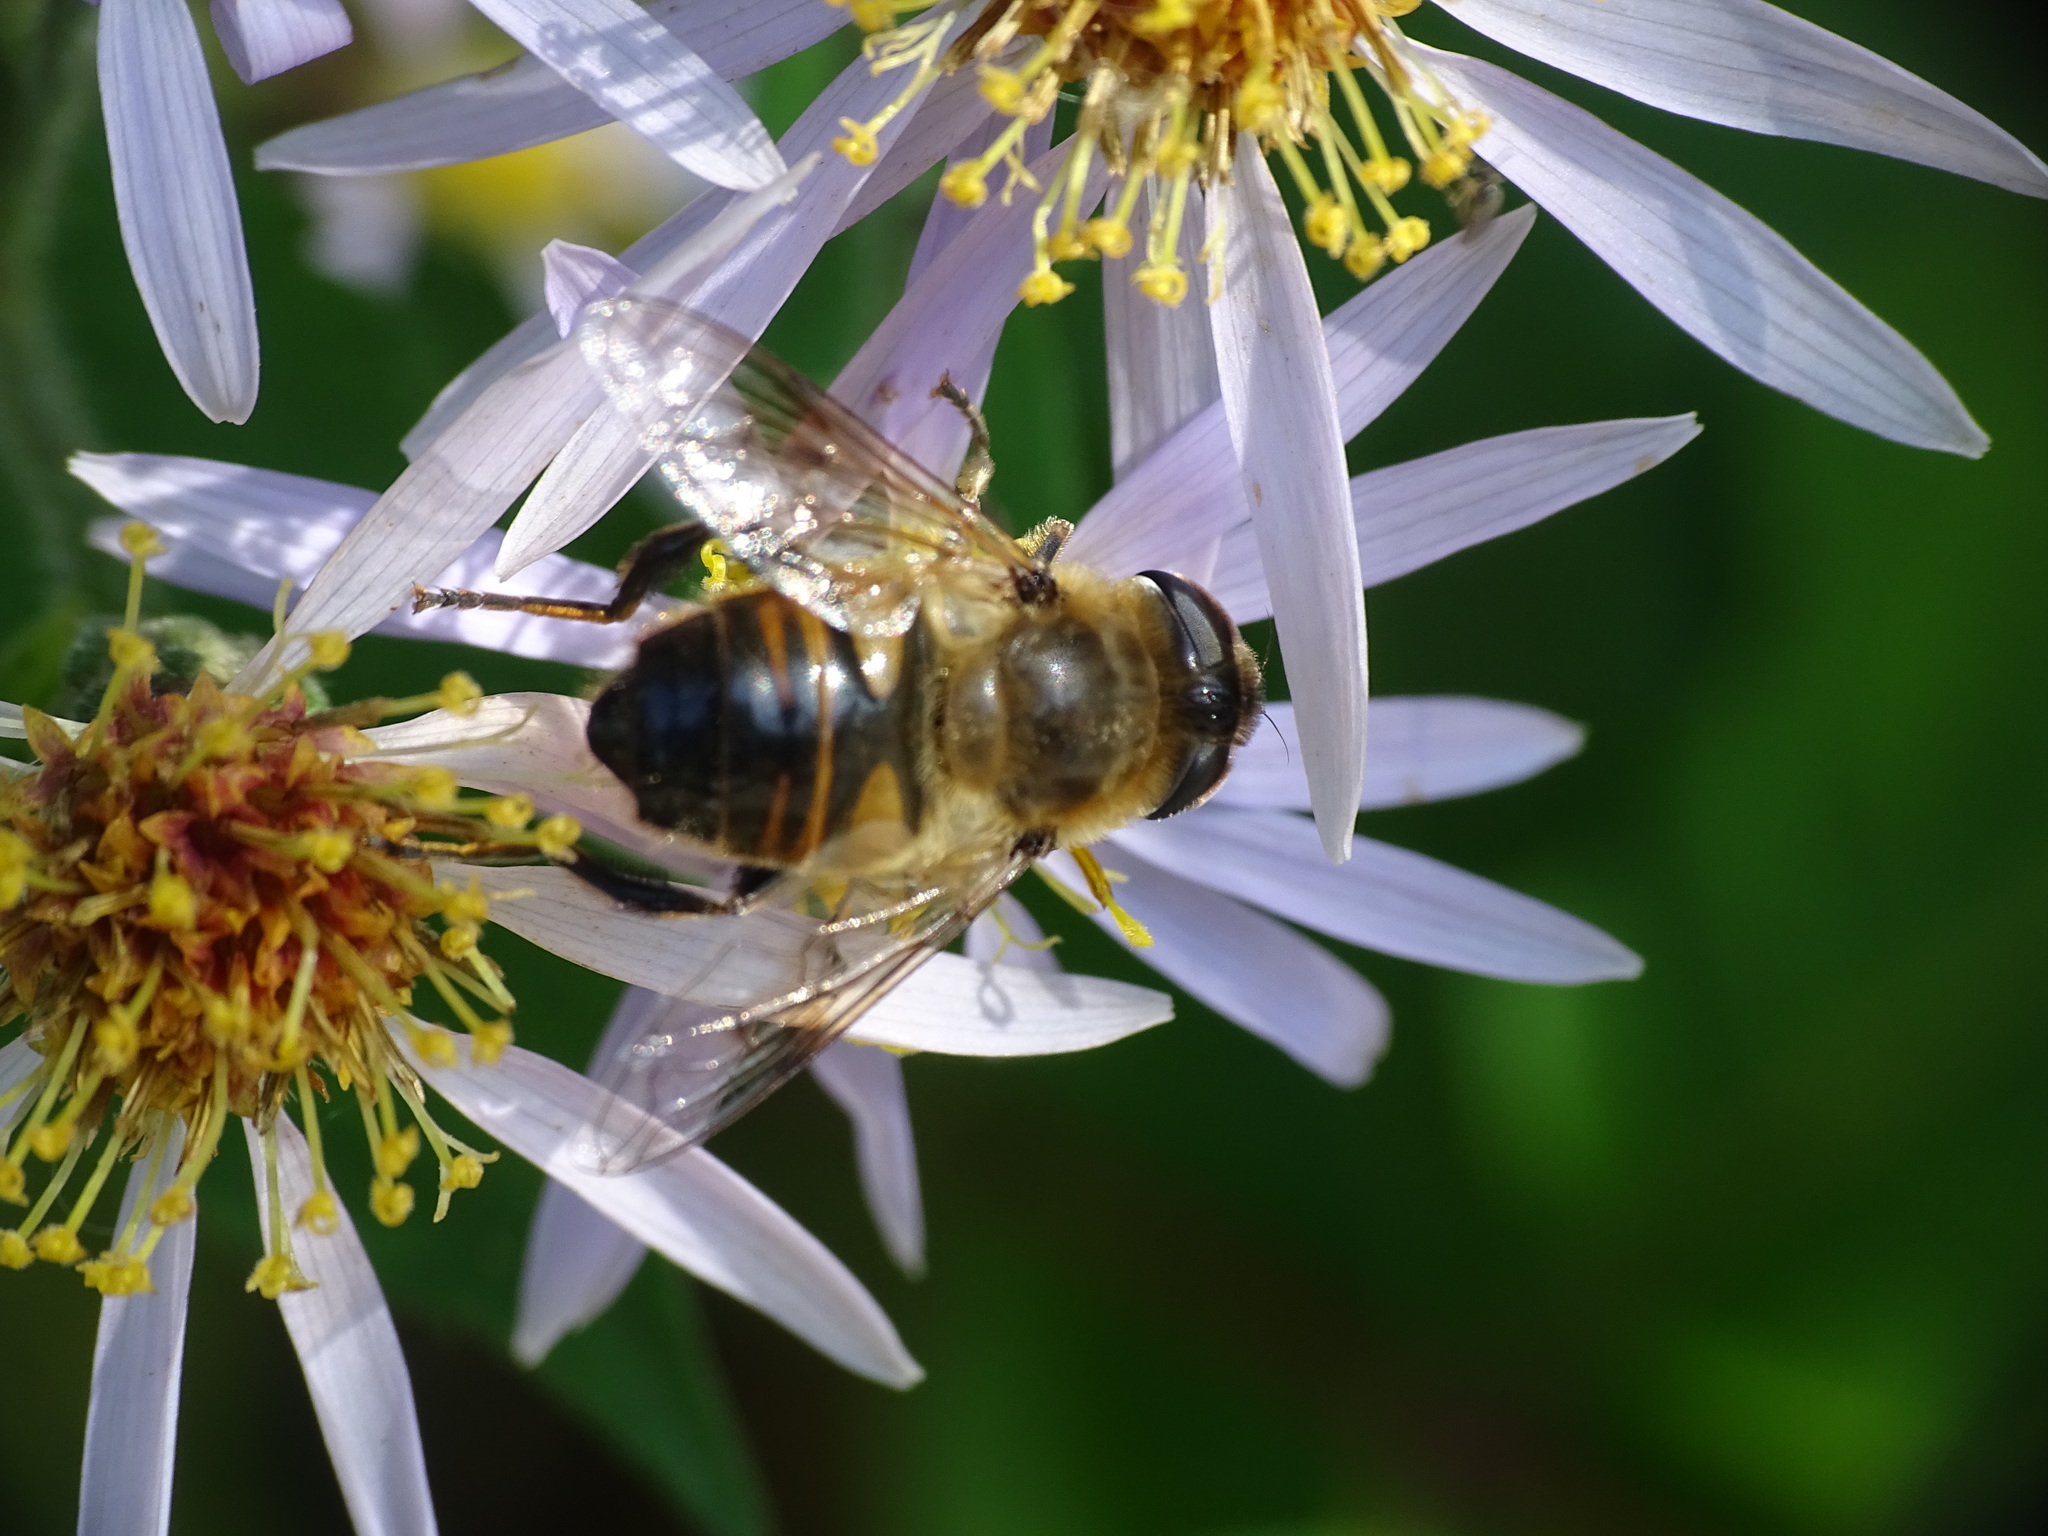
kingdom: Animalia
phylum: Arthropoda
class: Insecta
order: Diptera
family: Syrphidae
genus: Eristalis
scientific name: Eristalis tenax
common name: Drone fly
